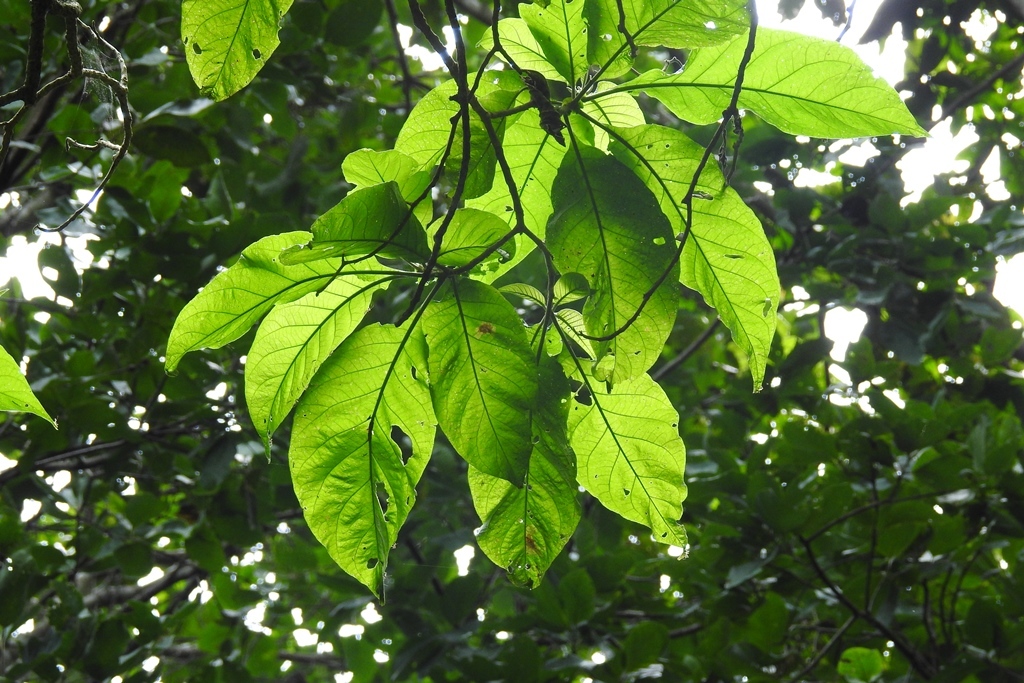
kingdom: Plantae
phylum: Tracheophyta
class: Magnoliopsida
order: Solanales
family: Solanaceae
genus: Iochroma
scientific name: Iochroma arborescens
